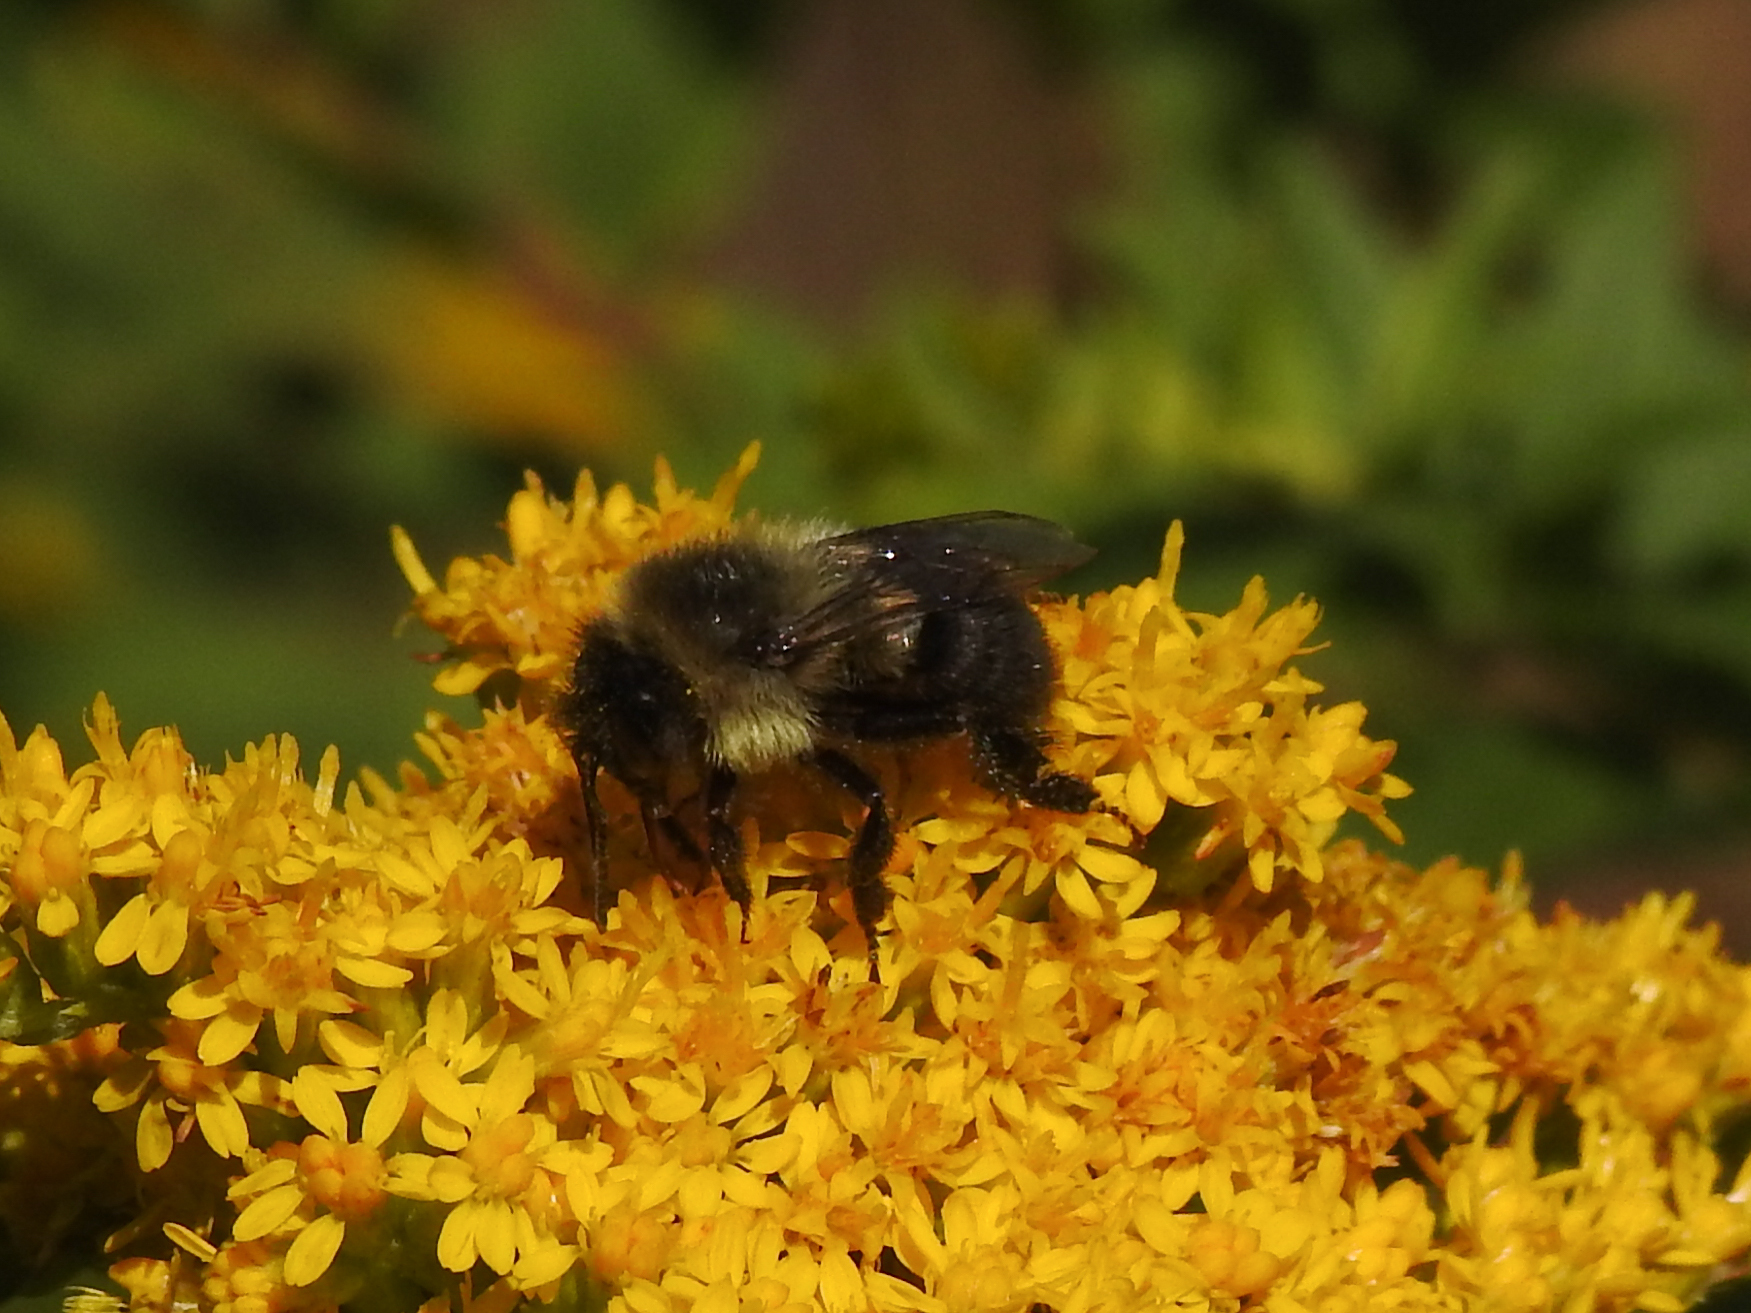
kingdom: Animalia
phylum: Arthropoda
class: Insecta
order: Hymenoptera
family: Apidae
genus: Bombus
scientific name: Bombus impatiens
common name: Common eastern bumble bee
